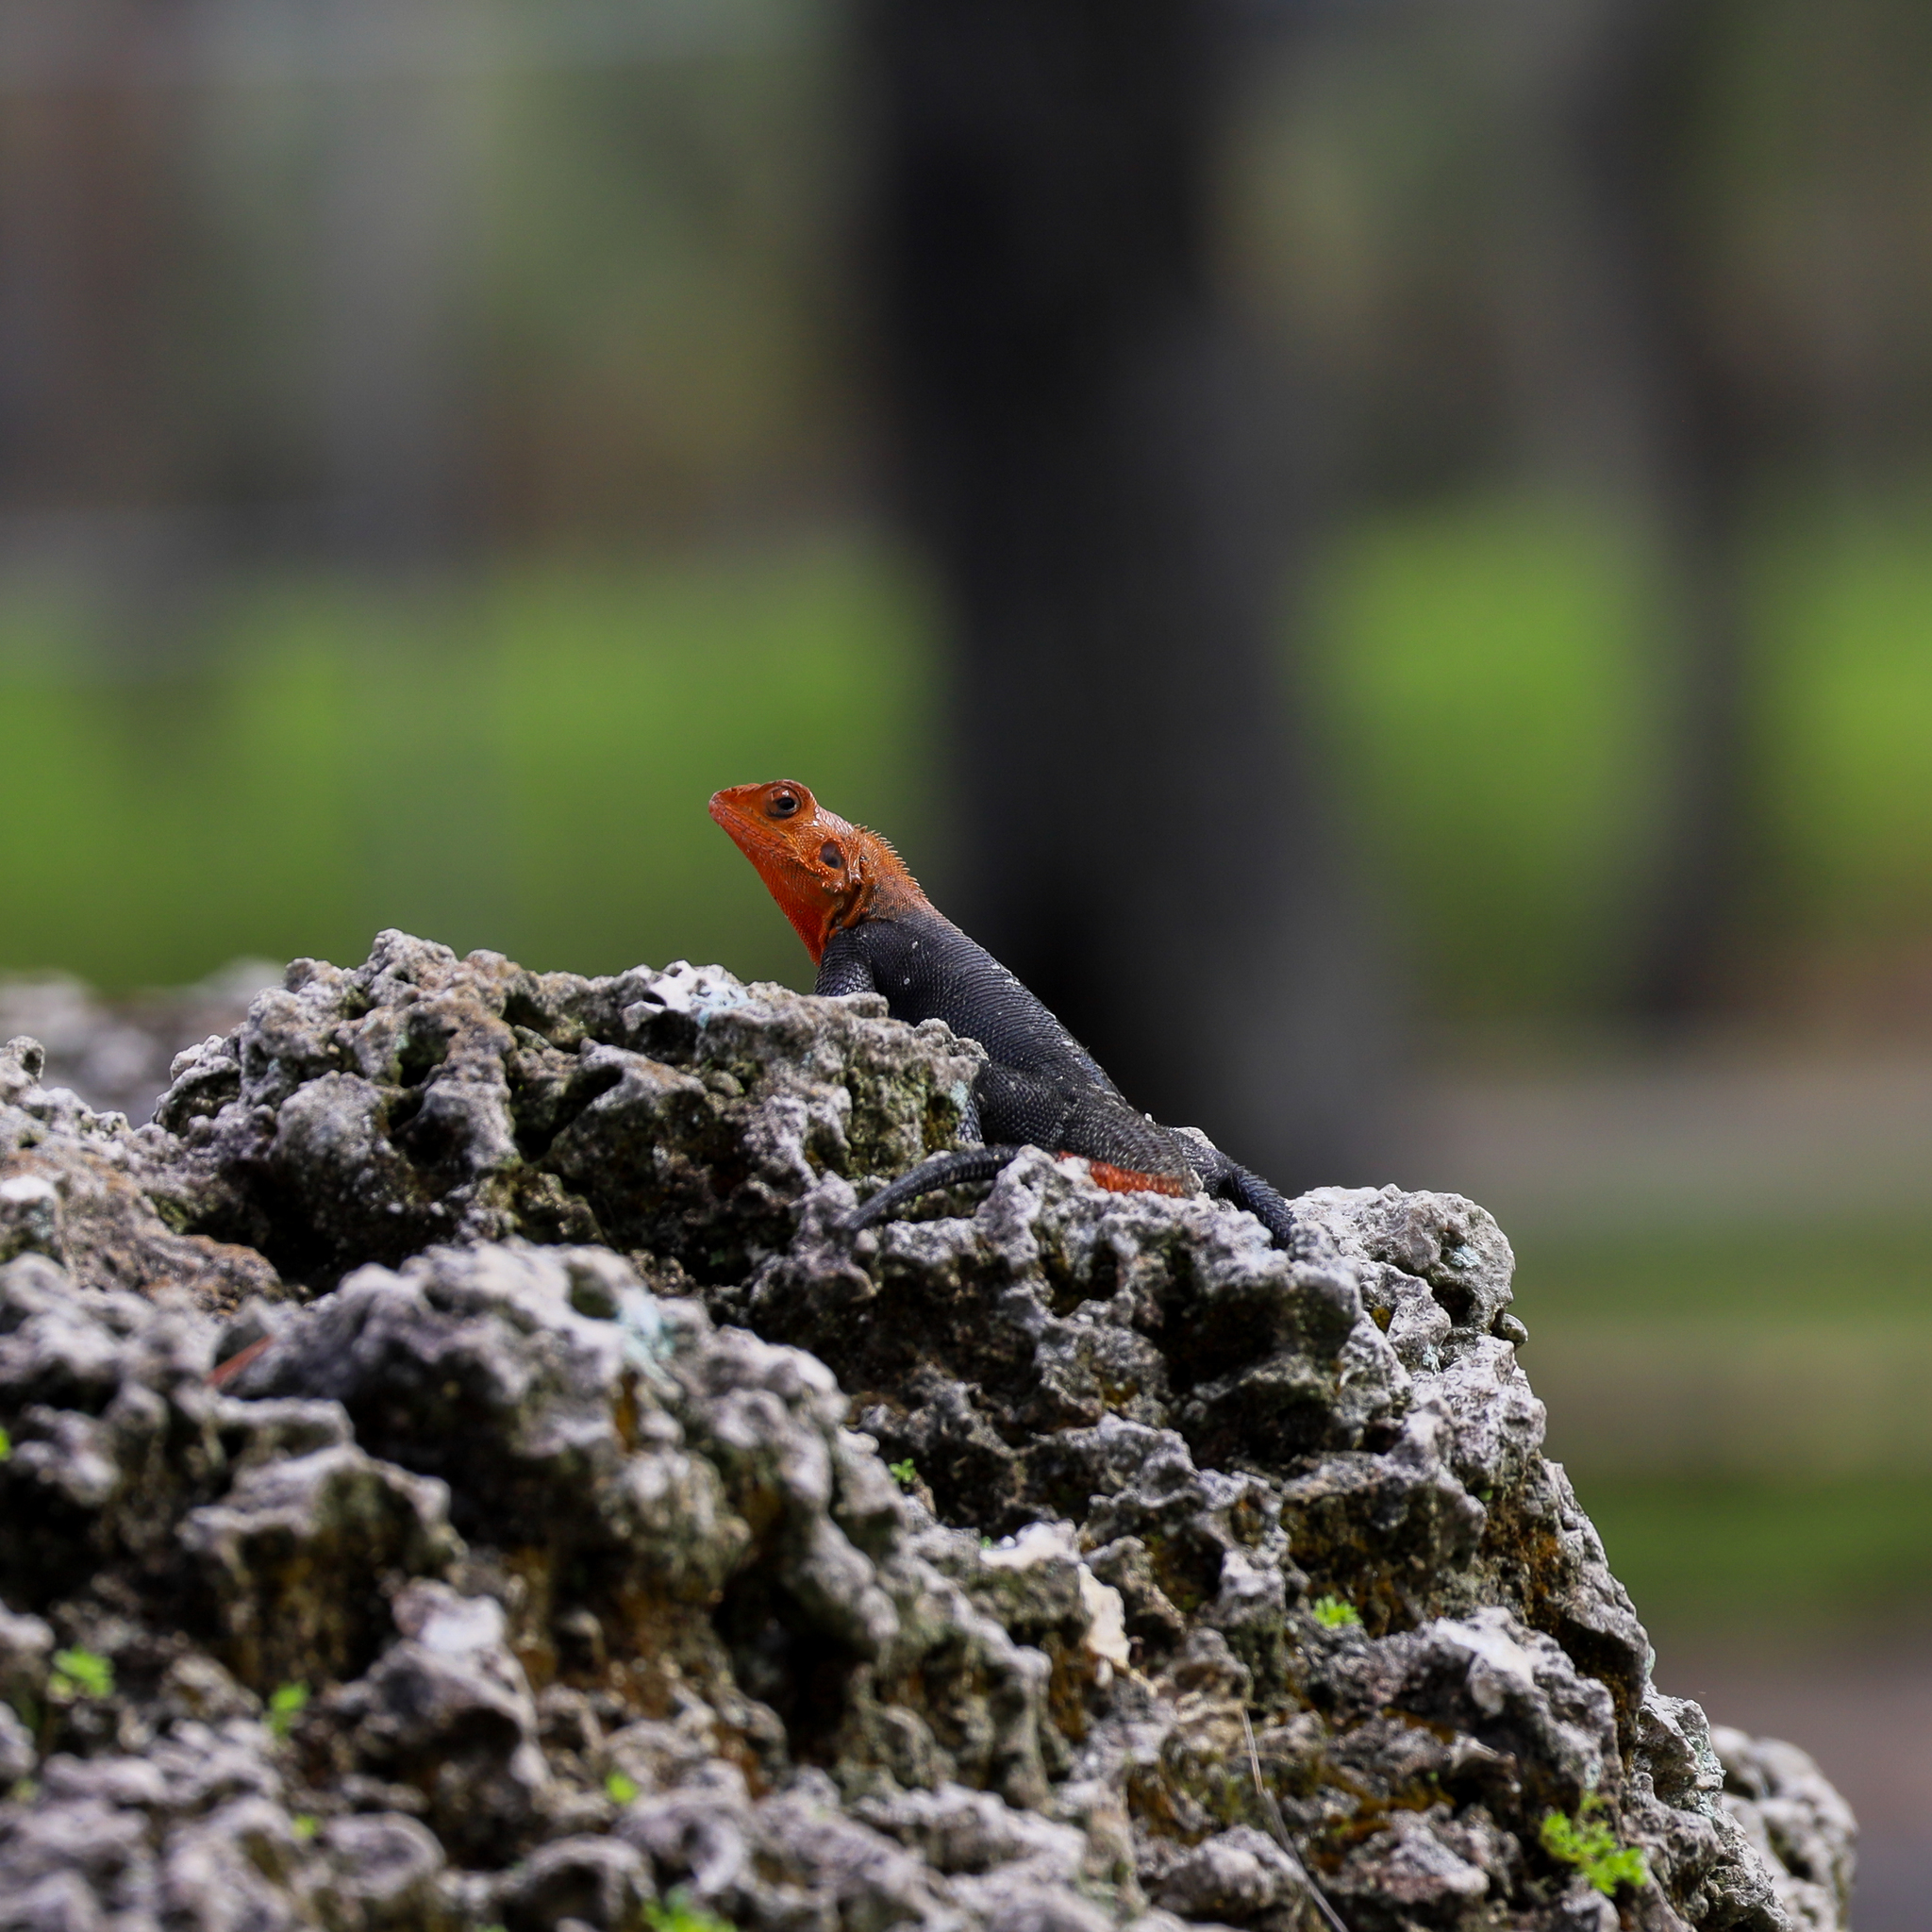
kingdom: Animalia
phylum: Chordata
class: Squamata
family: Agamidae
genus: Agama
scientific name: Agama picticauda
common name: Red-headed agama
